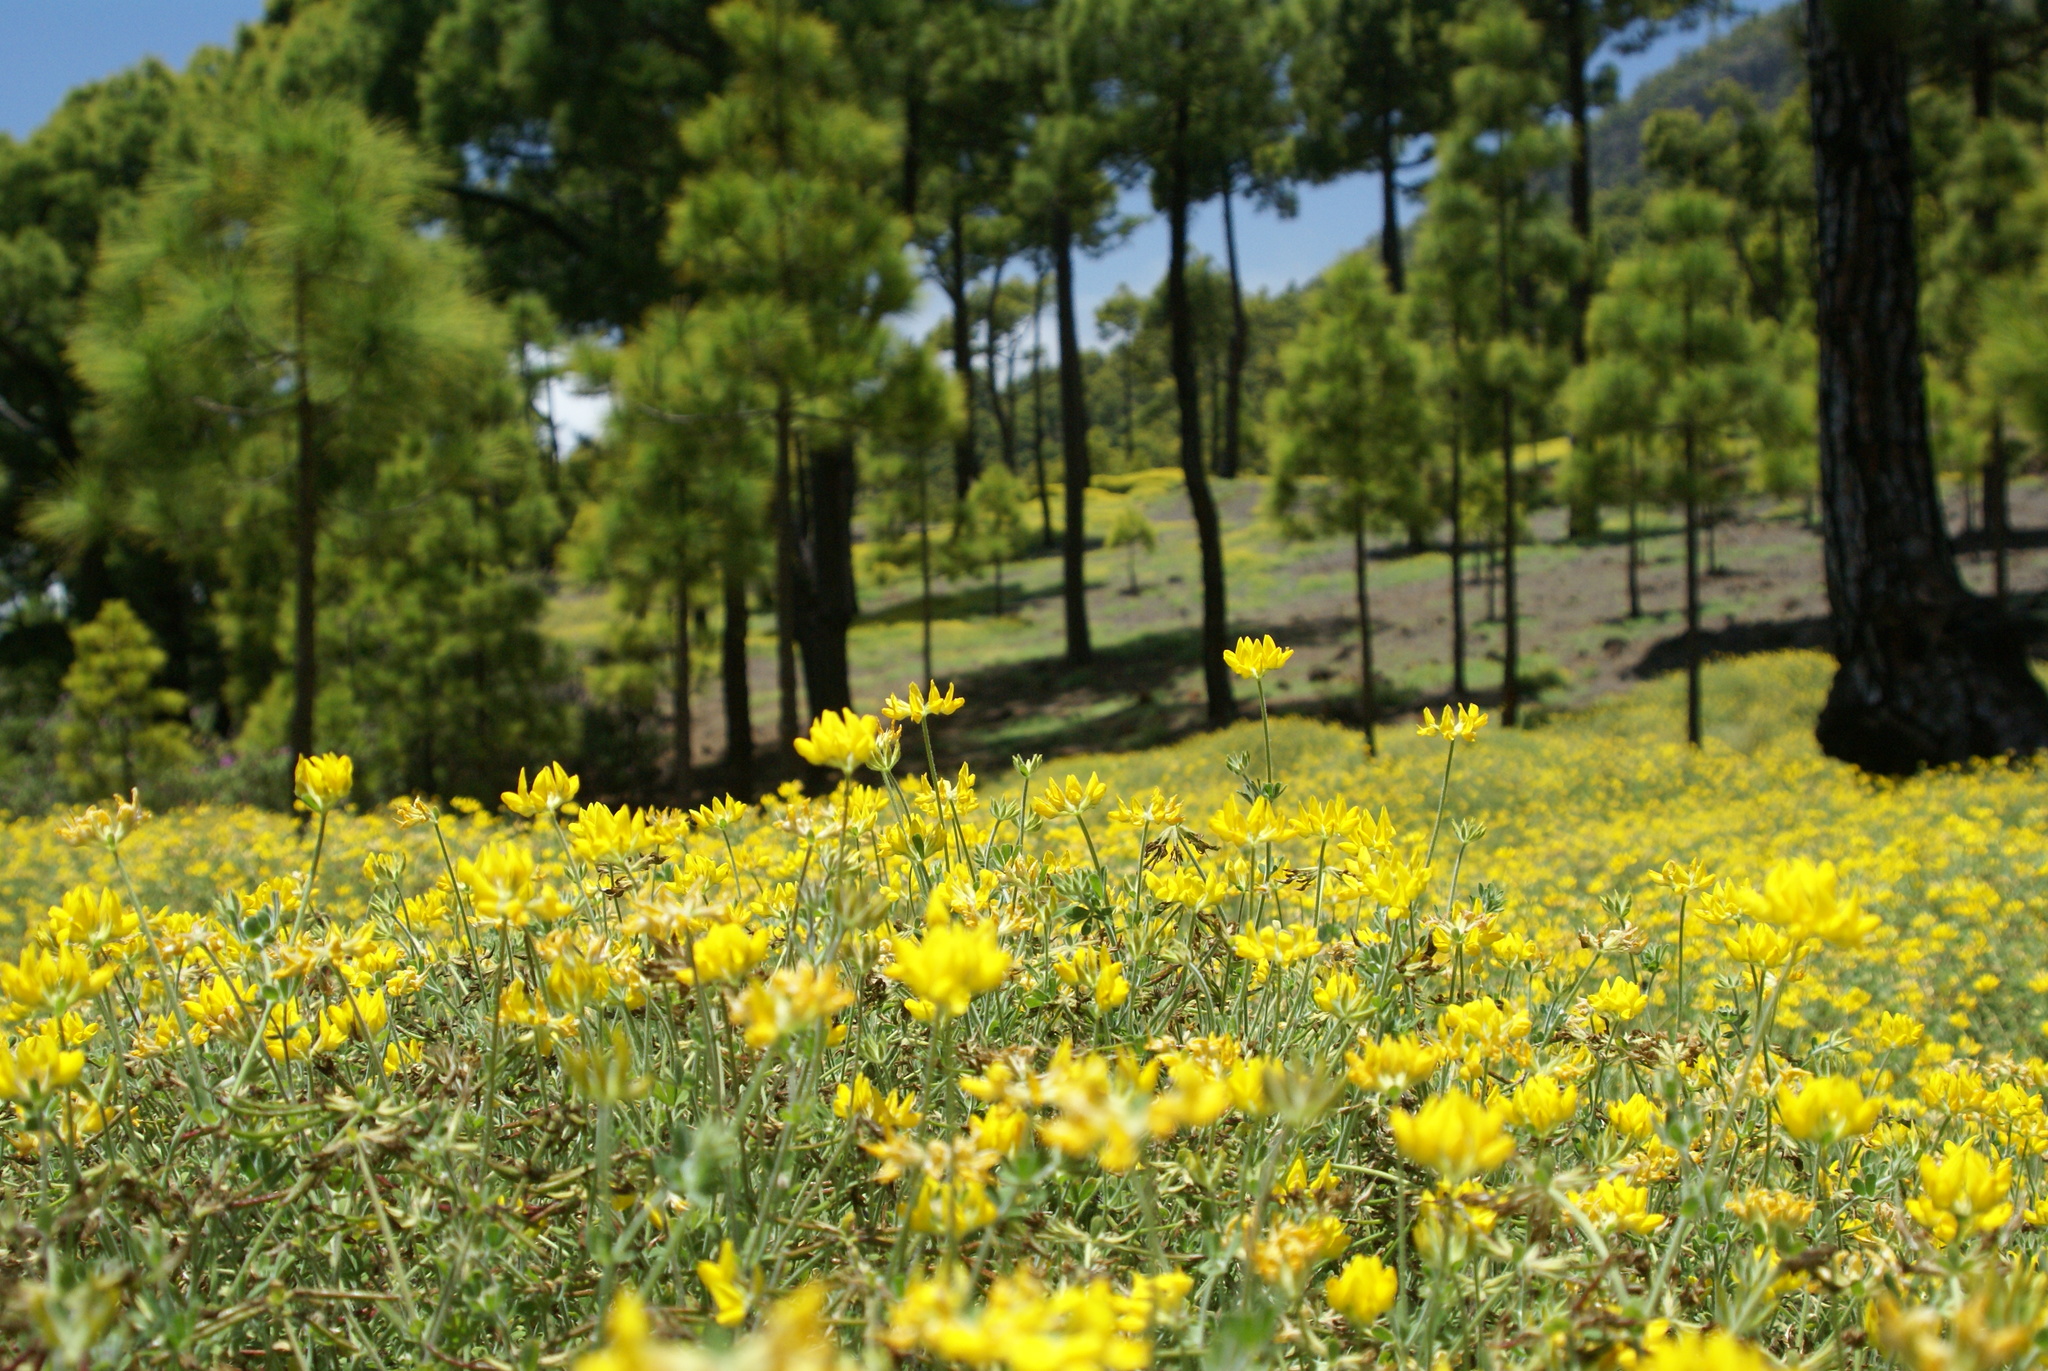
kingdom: Plantae
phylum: Tracheophyta
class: Magnoliopsida
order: Fabales
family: Fabaceae
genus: Lotus
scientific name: Lotus campylocladus
